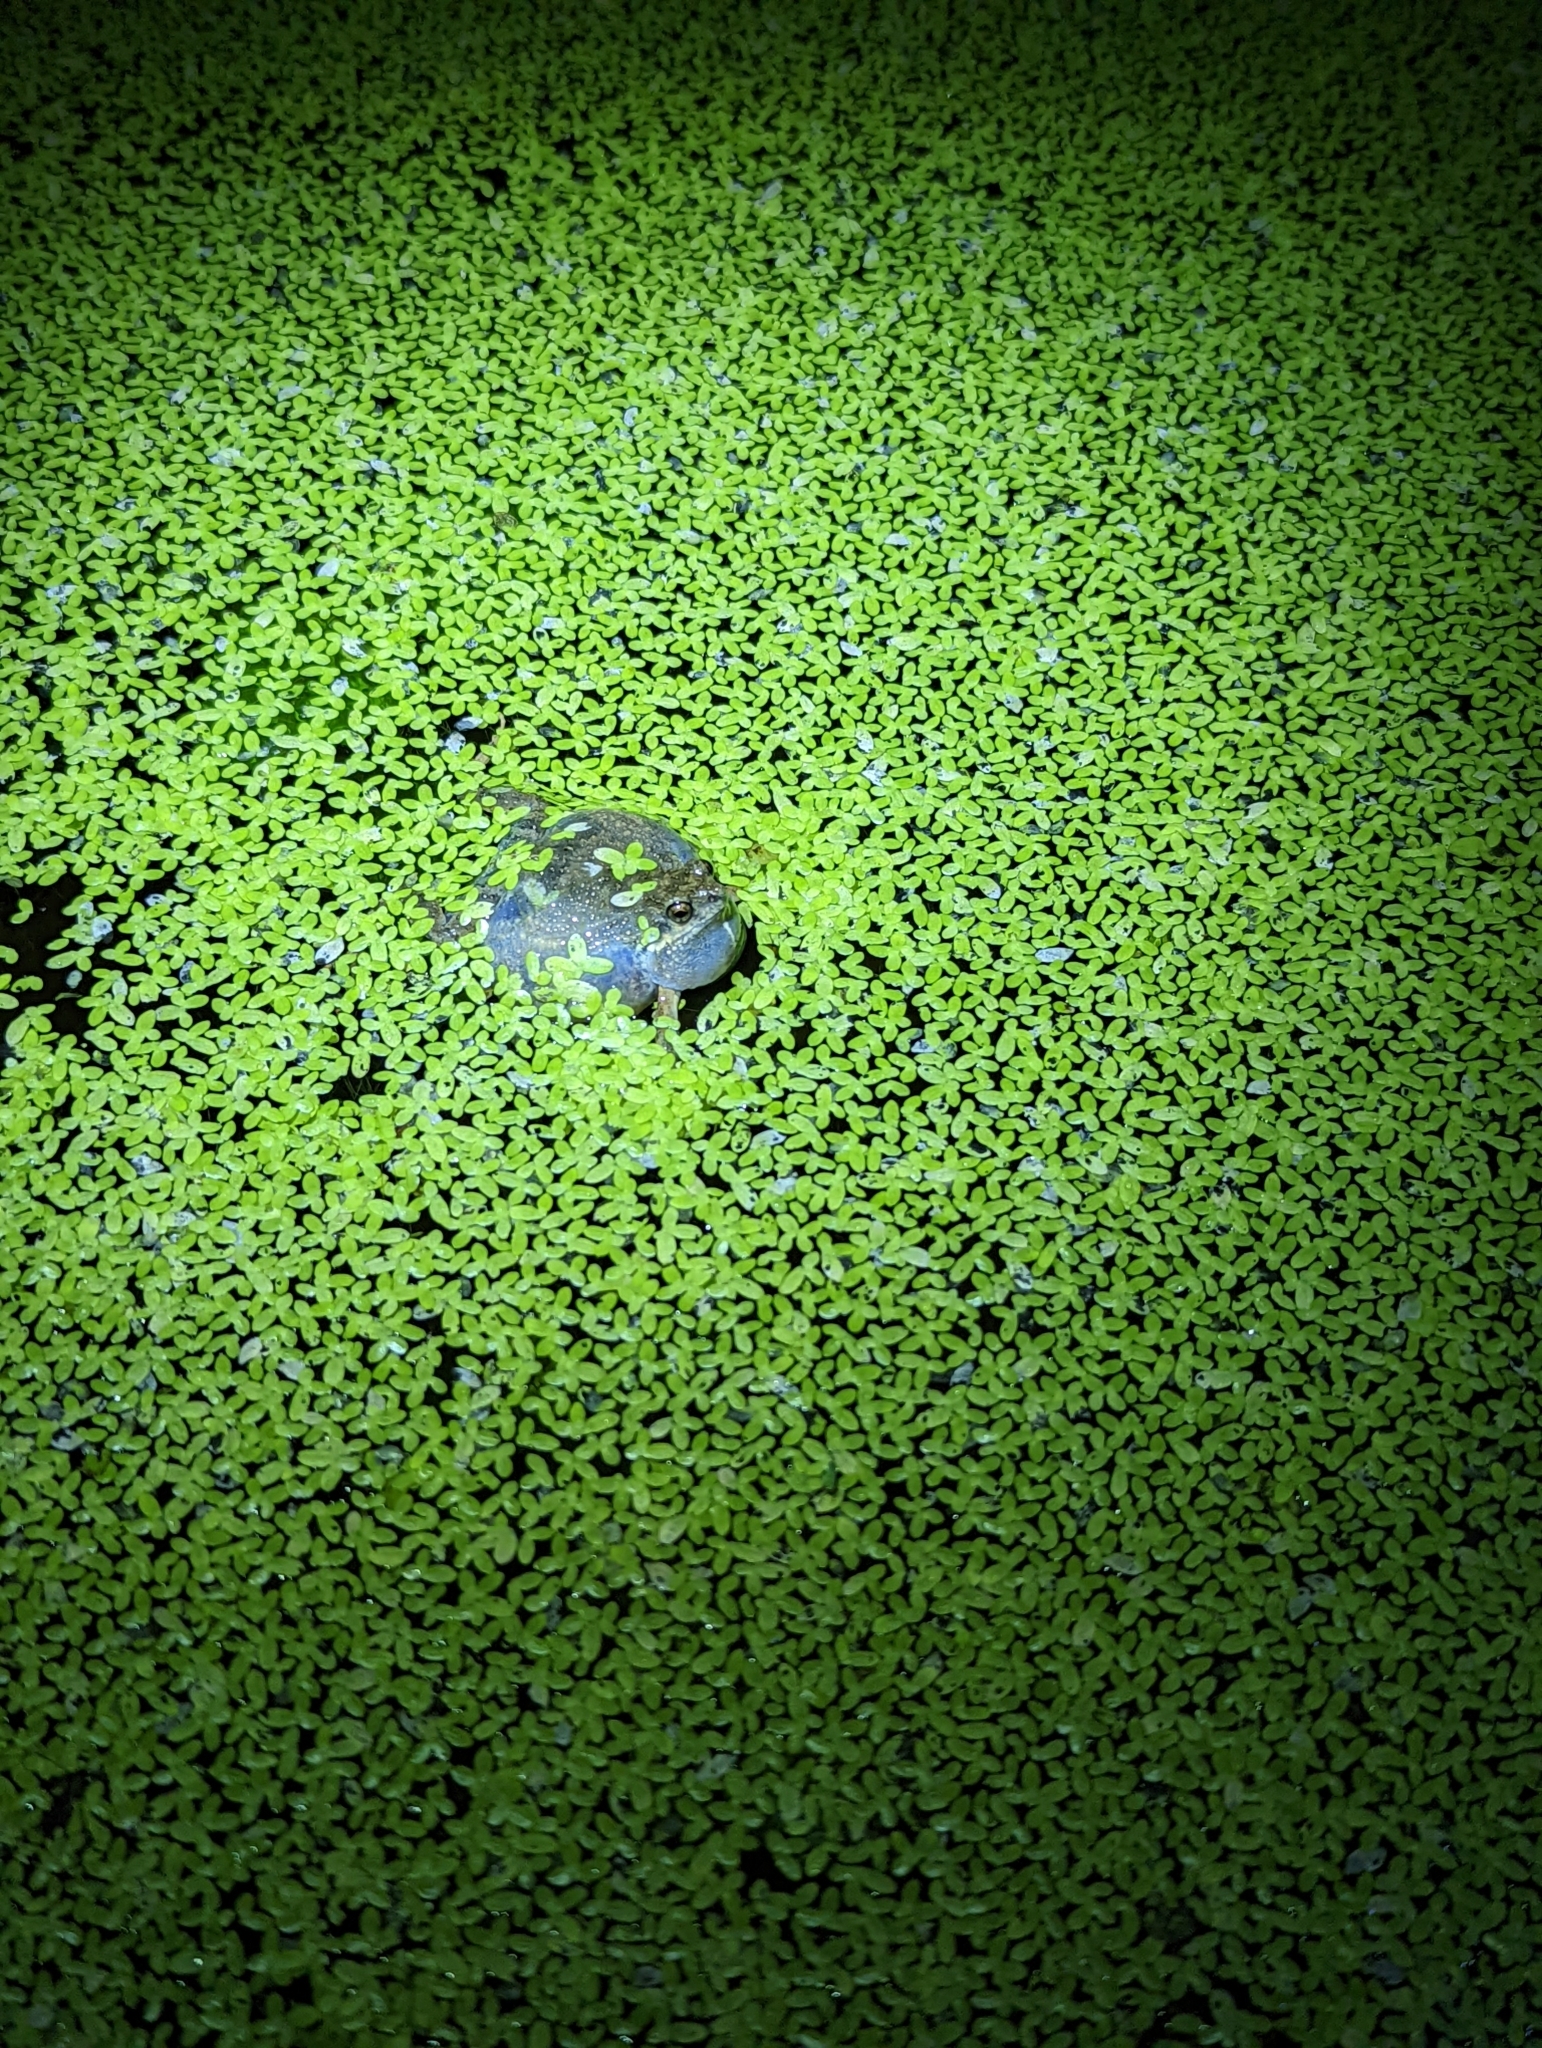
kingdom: Animalia
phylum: Chordata
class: Amphibia
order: Anura
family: Leptodactylidae
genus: Engystomops
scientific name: Engystomops pustulosus
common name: Tungara frog
